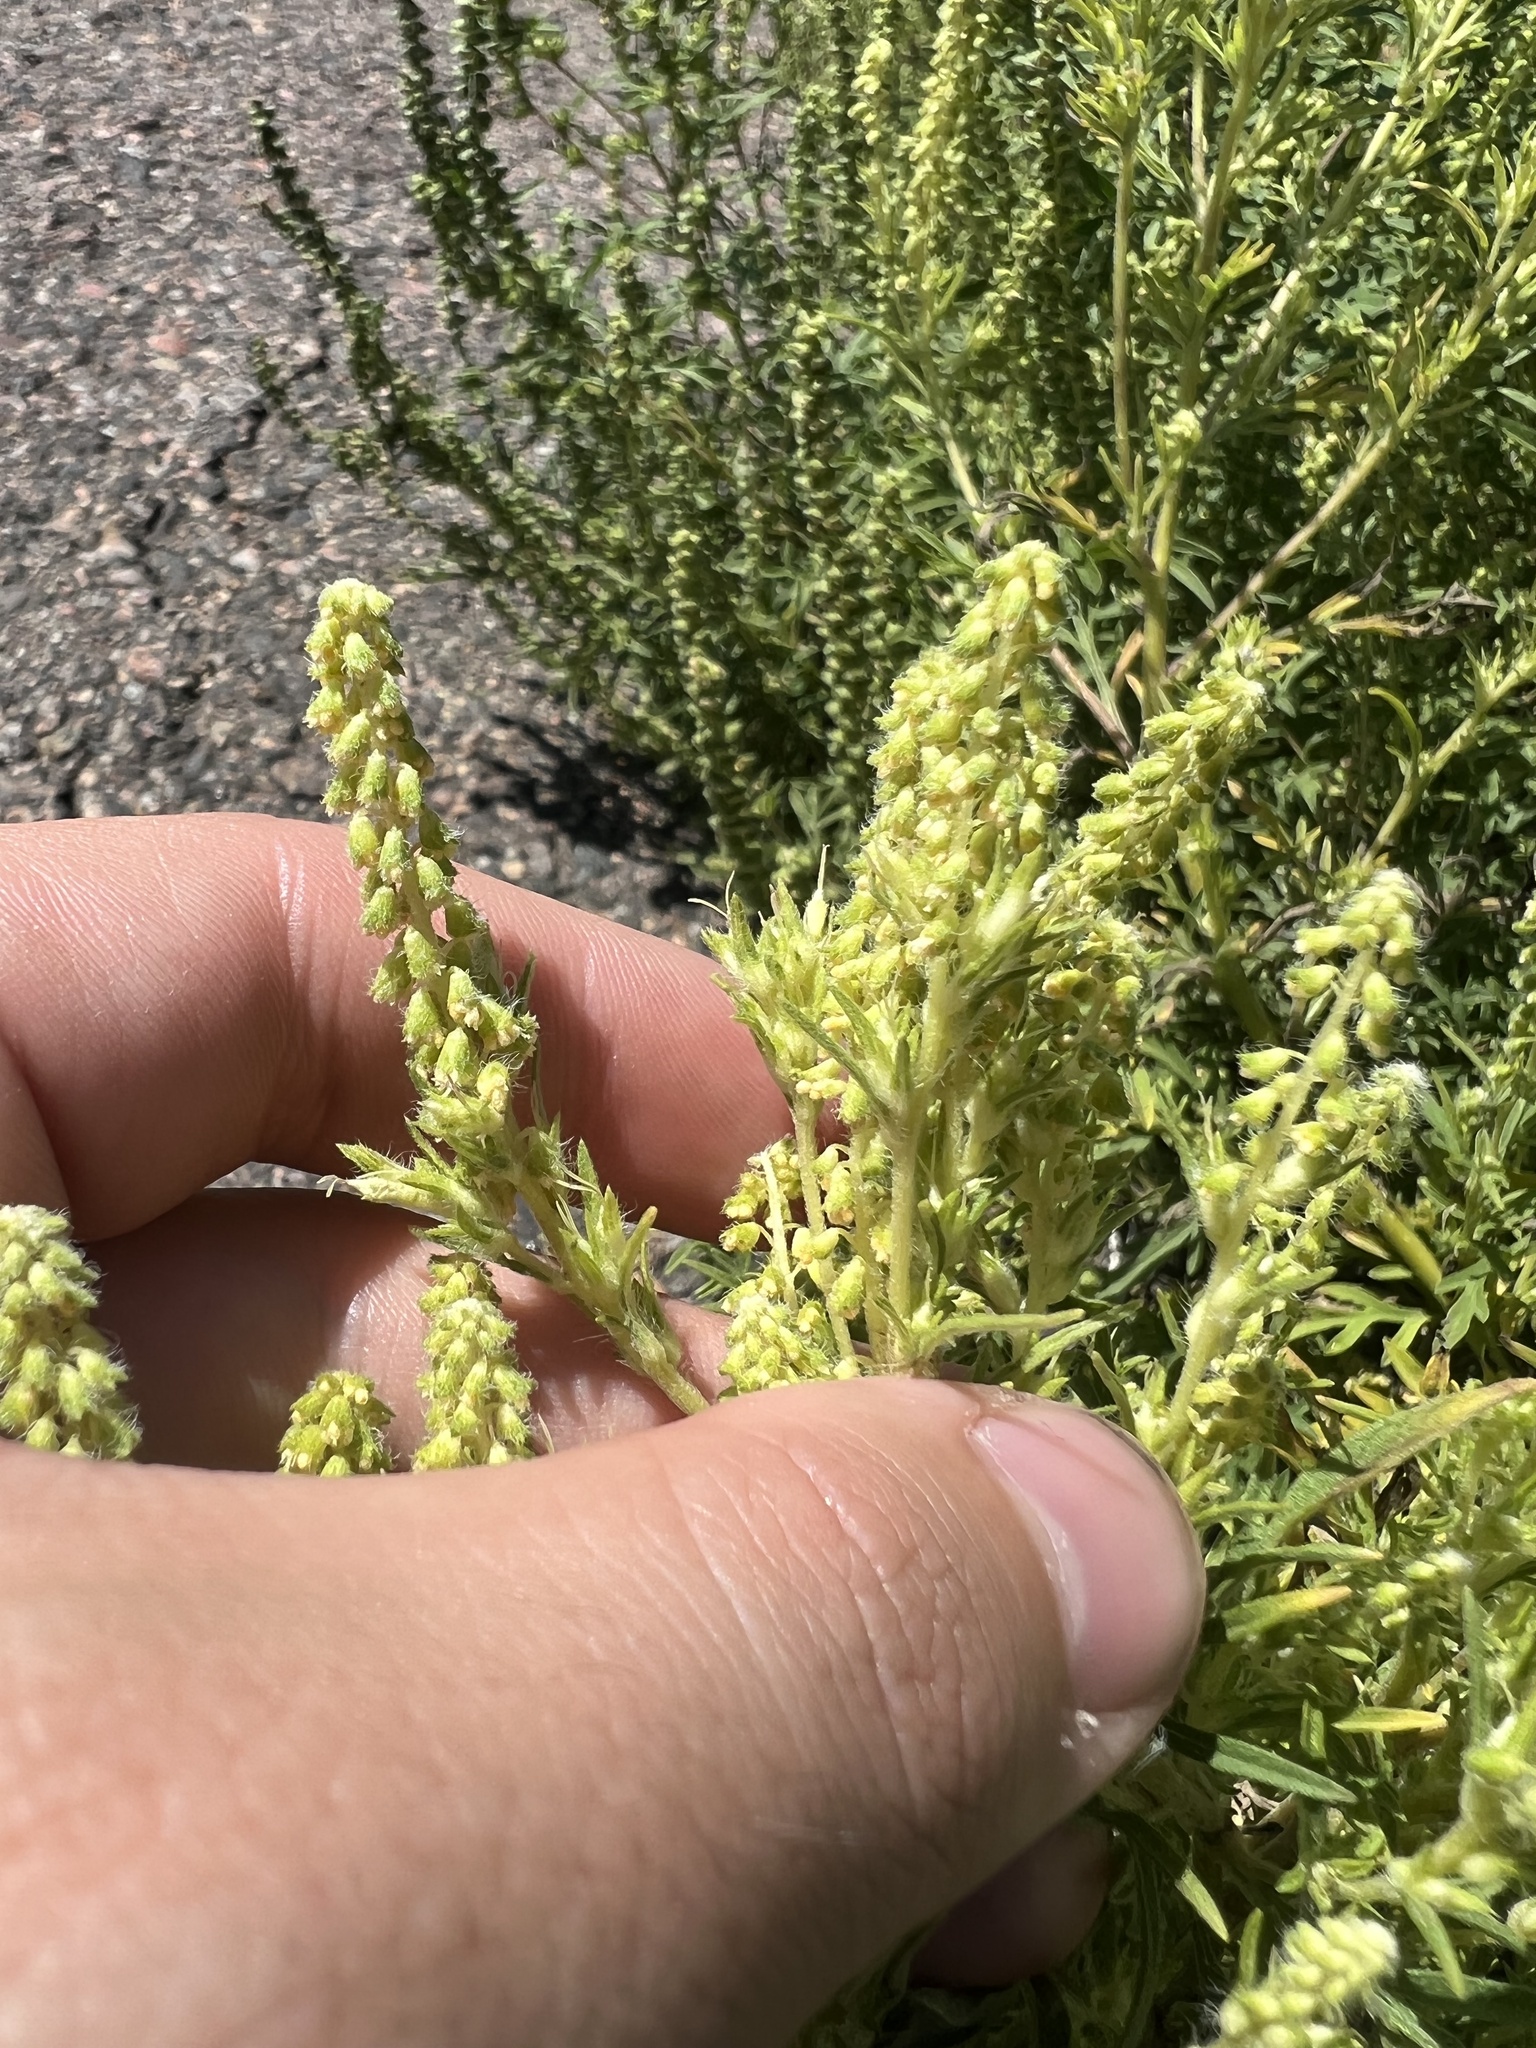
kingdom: Plantae
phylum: Tracheophyta
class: Magnoliopsida
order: Asterales
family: Asteraceae
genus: Ambrosia
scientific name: Ambrosia psilostachya
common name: Perennial ragweed
